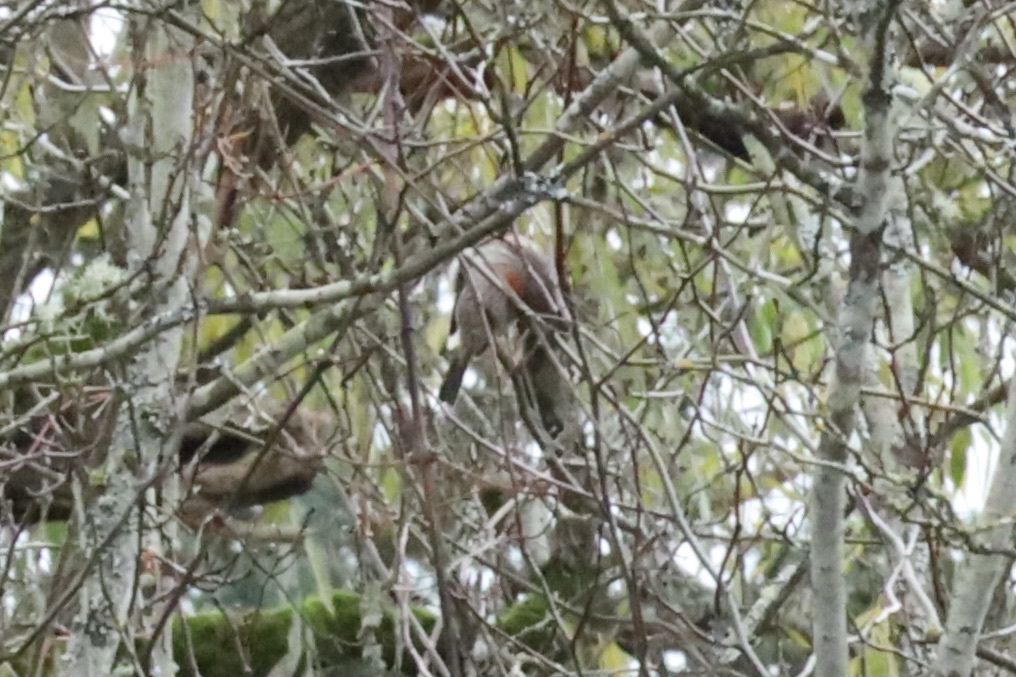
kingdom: Animalia
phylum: Chordata
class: Aves
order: Passeriformes
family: Fringillidae
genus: Haemorhous
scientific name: Haemorhous mexicanus
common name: House finch
